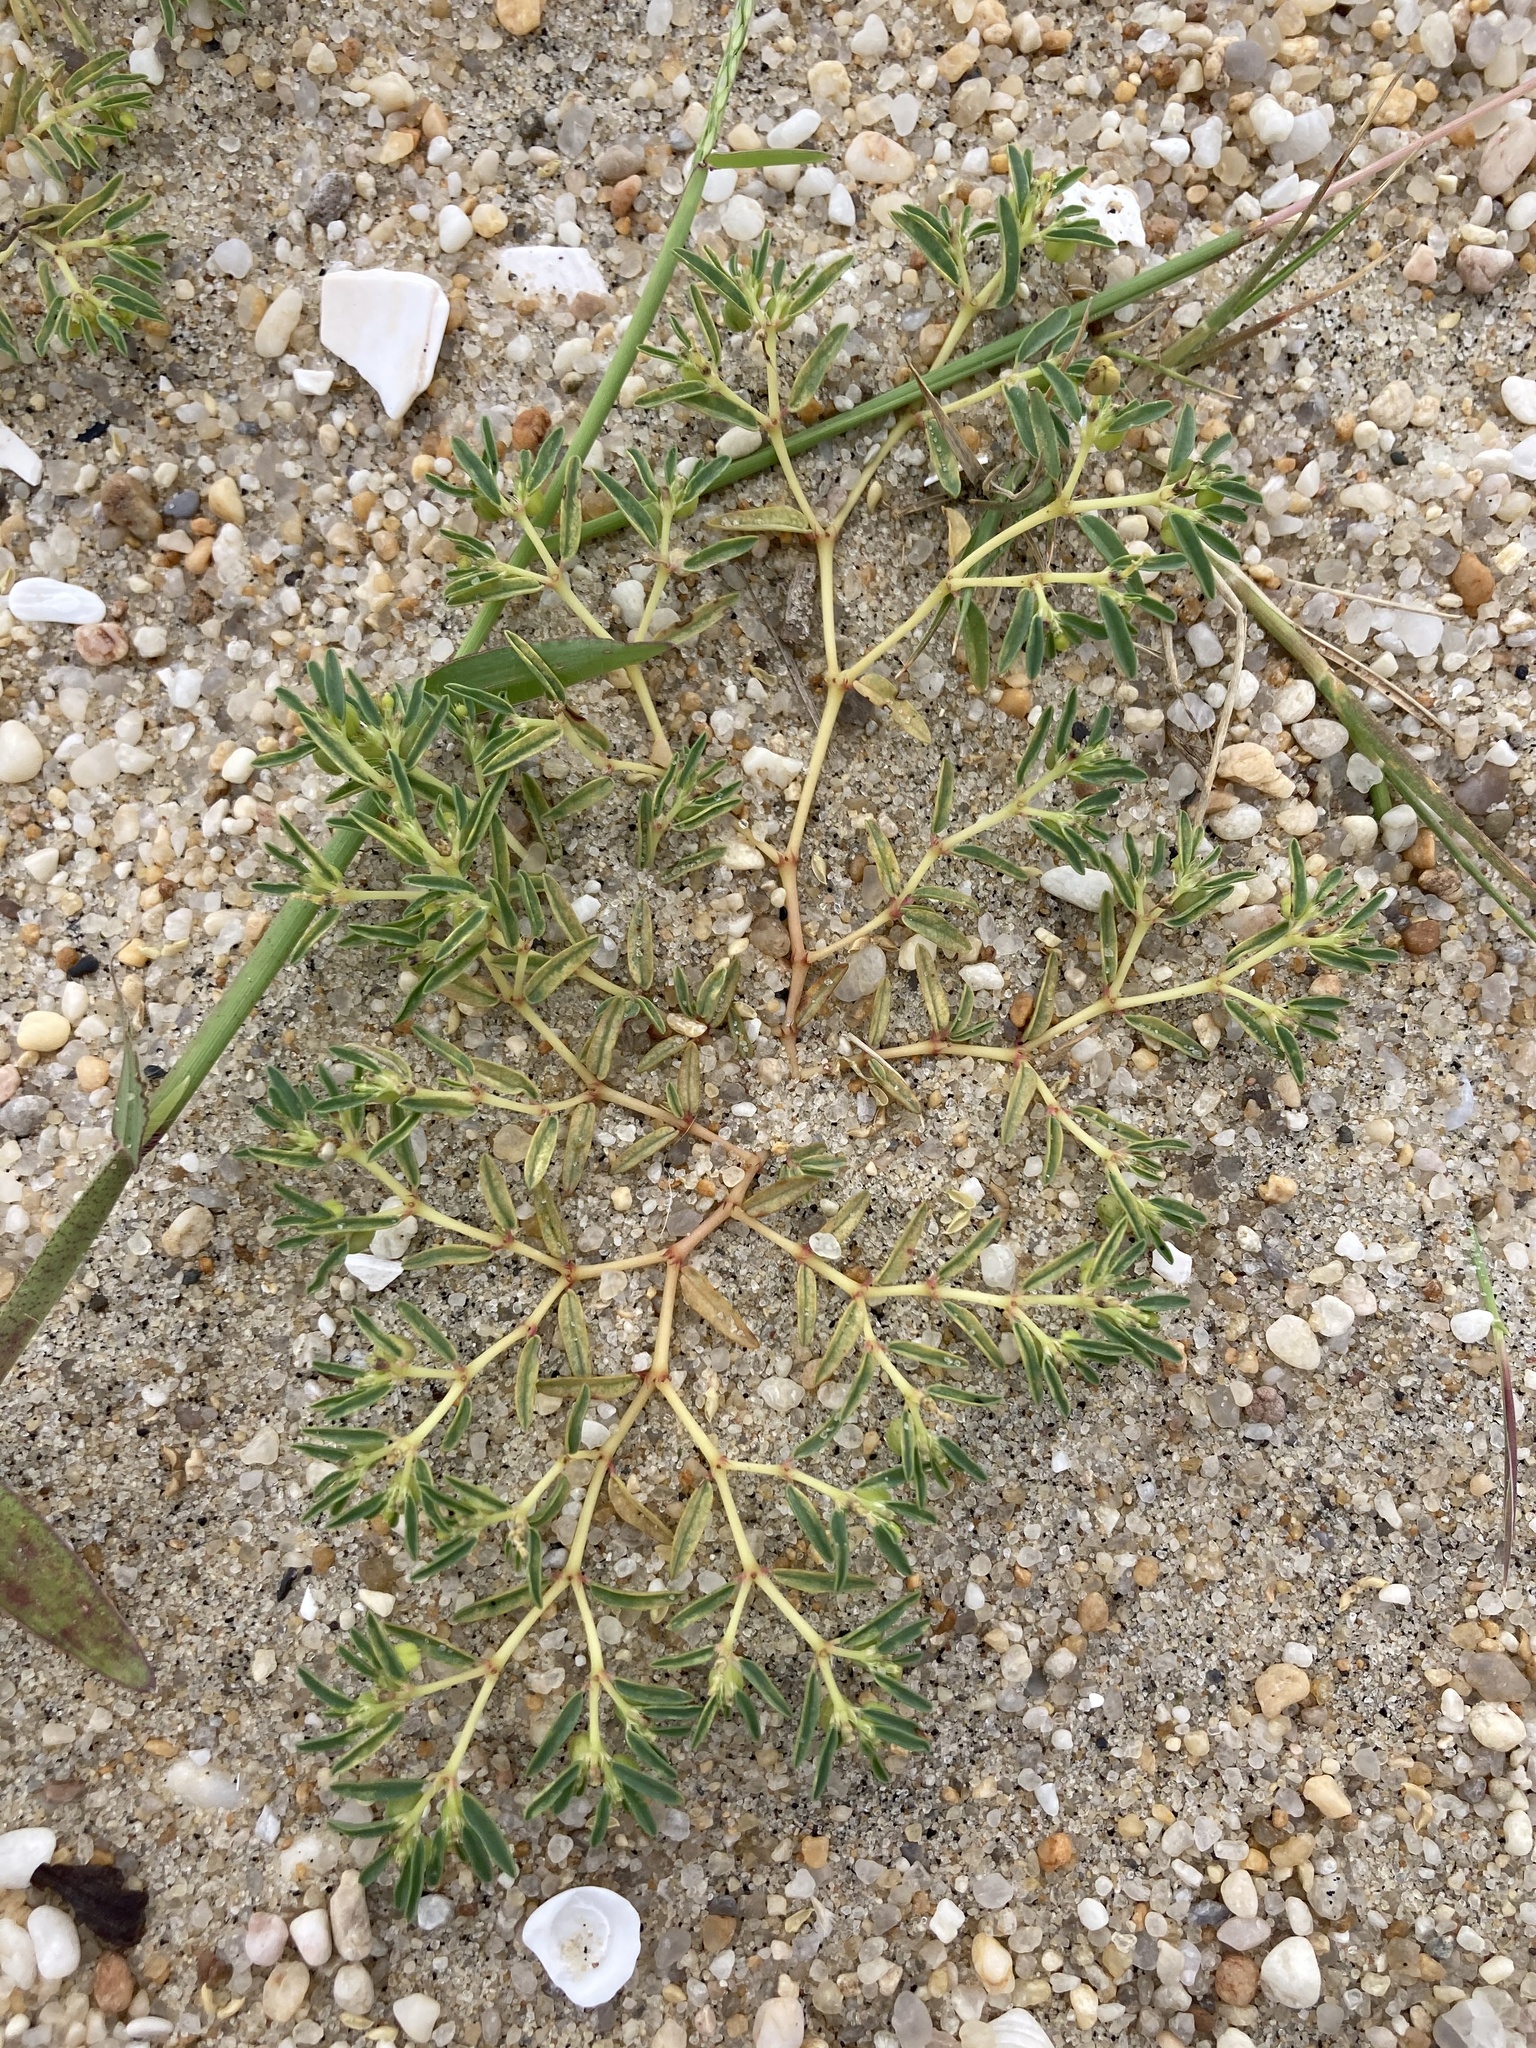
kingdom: Plantae
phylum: Tracheophyta
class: Magnoliopsida
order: Malpighiales
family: Euphorbiaceae
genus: Euphorbia
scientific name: Euphorbia polygonifolia
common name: Knotweed spurge
